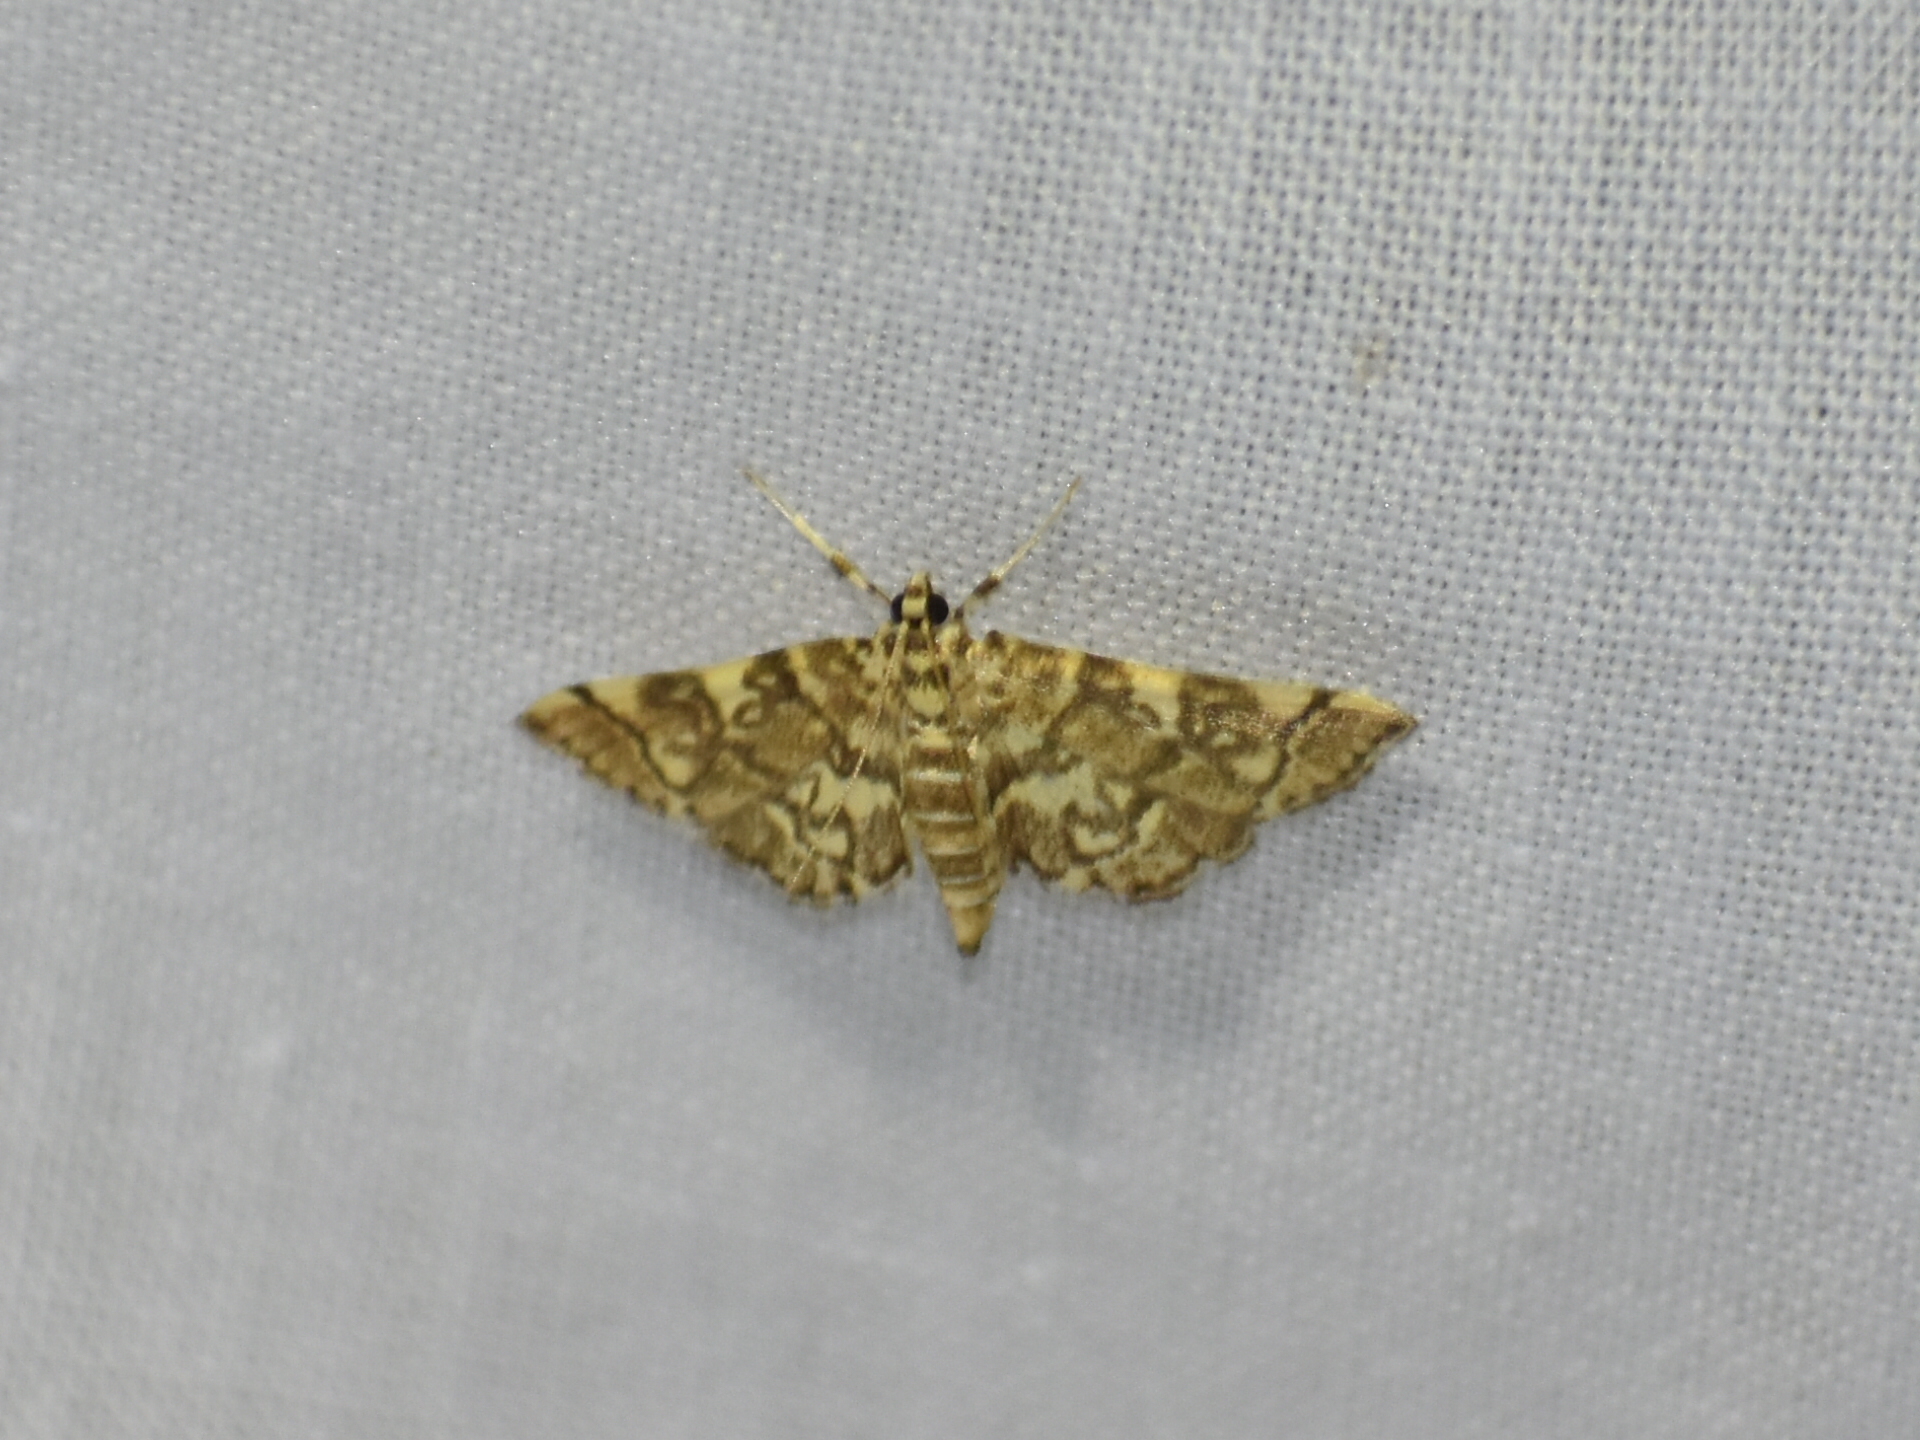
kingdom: Animalia
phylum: Arthropoda
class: Insecta
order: Lepidoptera
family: Crambidae
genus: Apogeshna
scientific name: Apogeshna stenialis
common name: Checkered apogeshna moth
